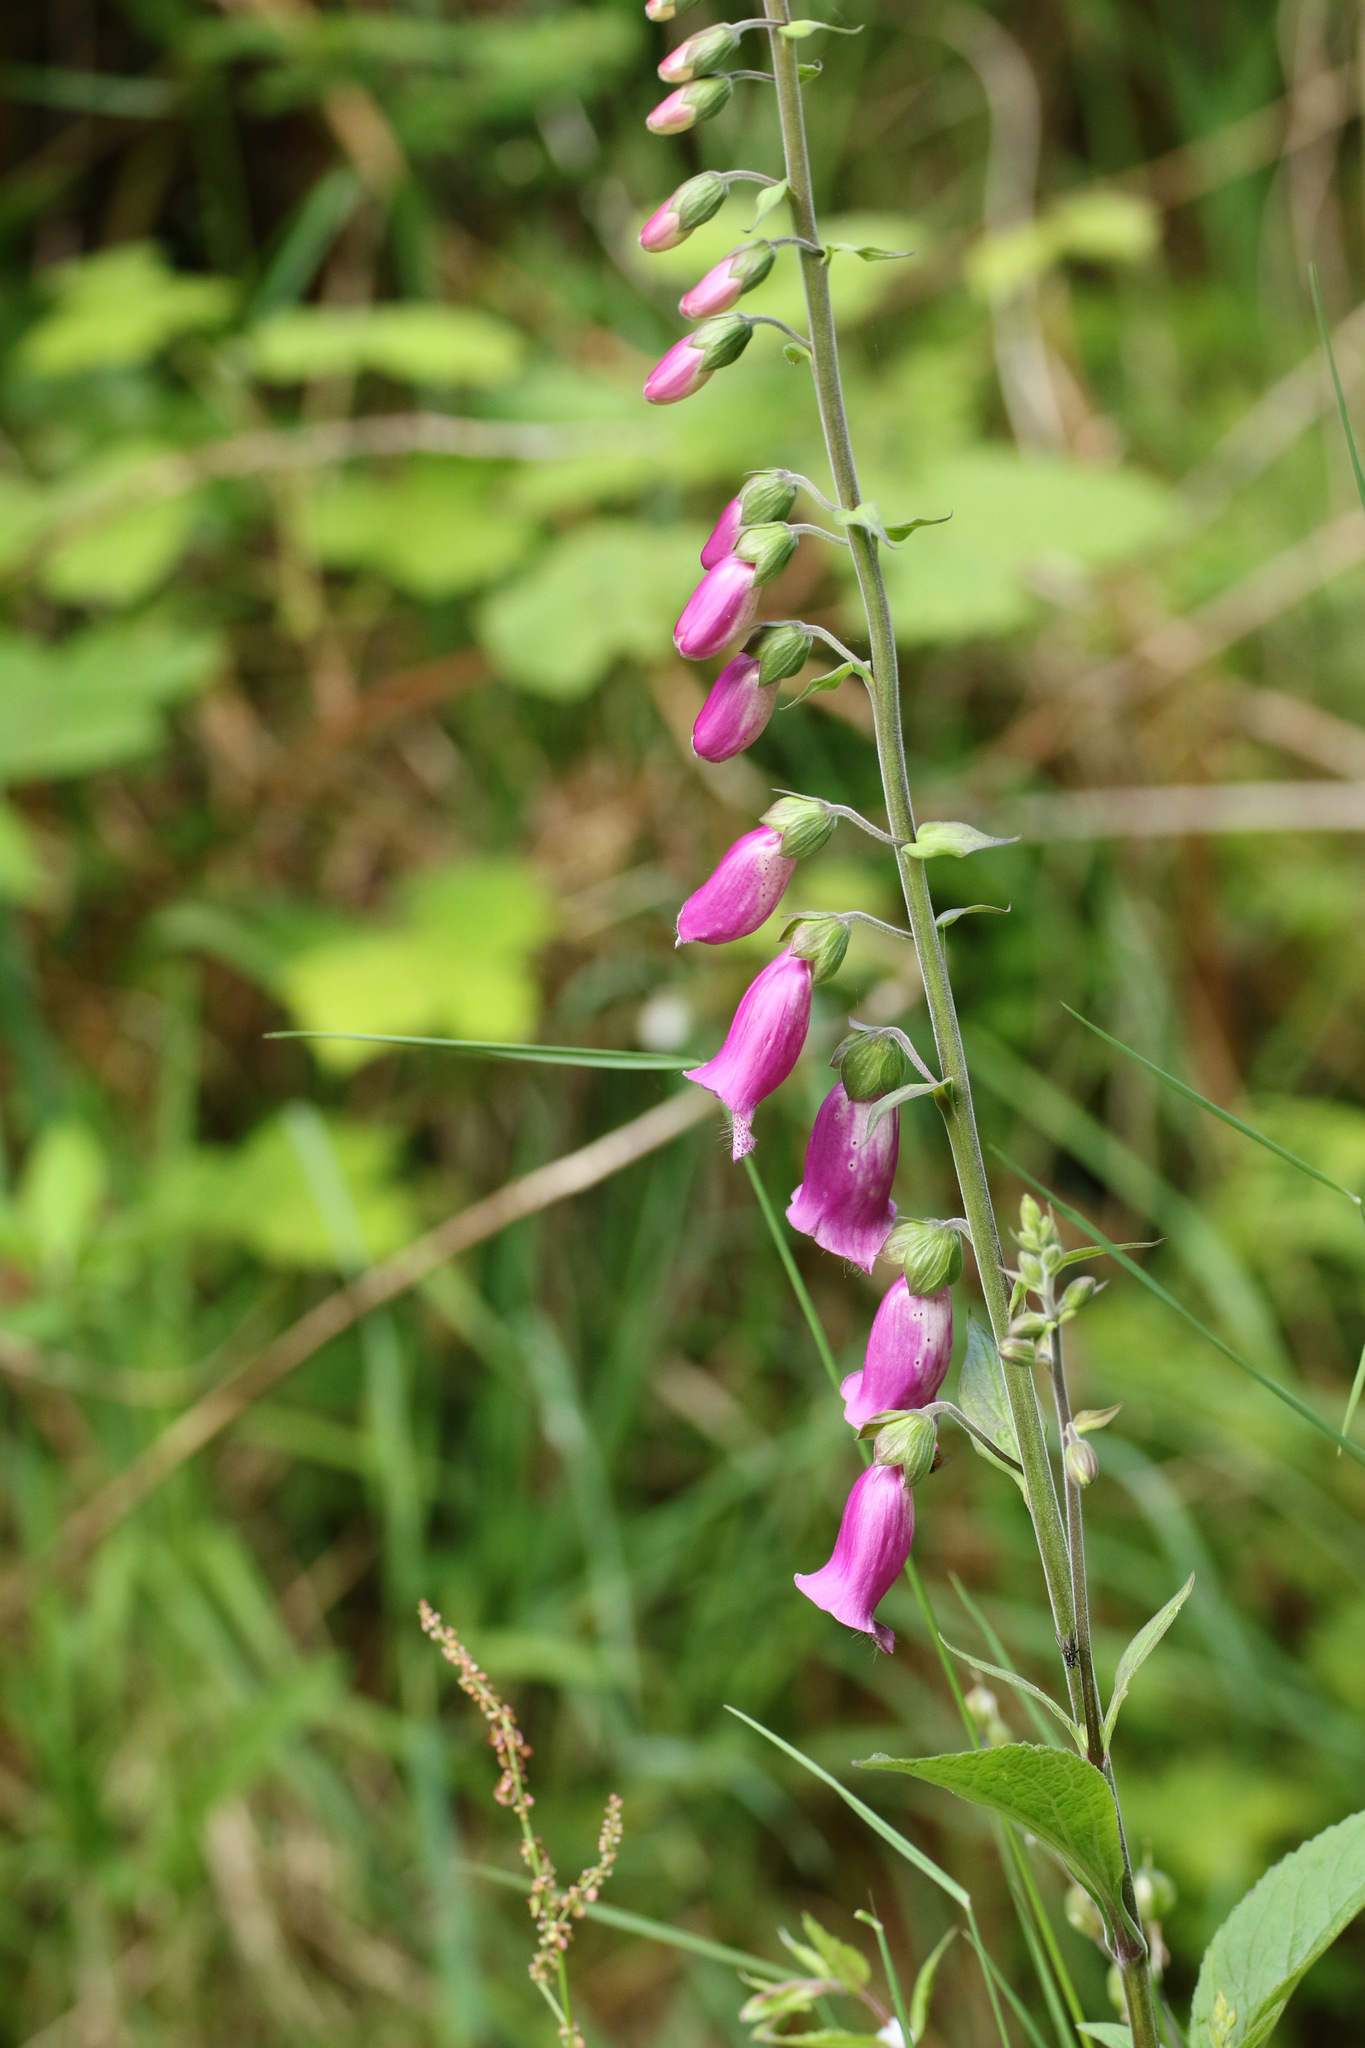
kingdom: Plantae
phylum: Tracheophyta
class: Magnoliopsida
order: Lamiales
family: Plantaginaceae
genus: Digitalis
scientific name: Digitalis purpurea
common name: Foxglove
